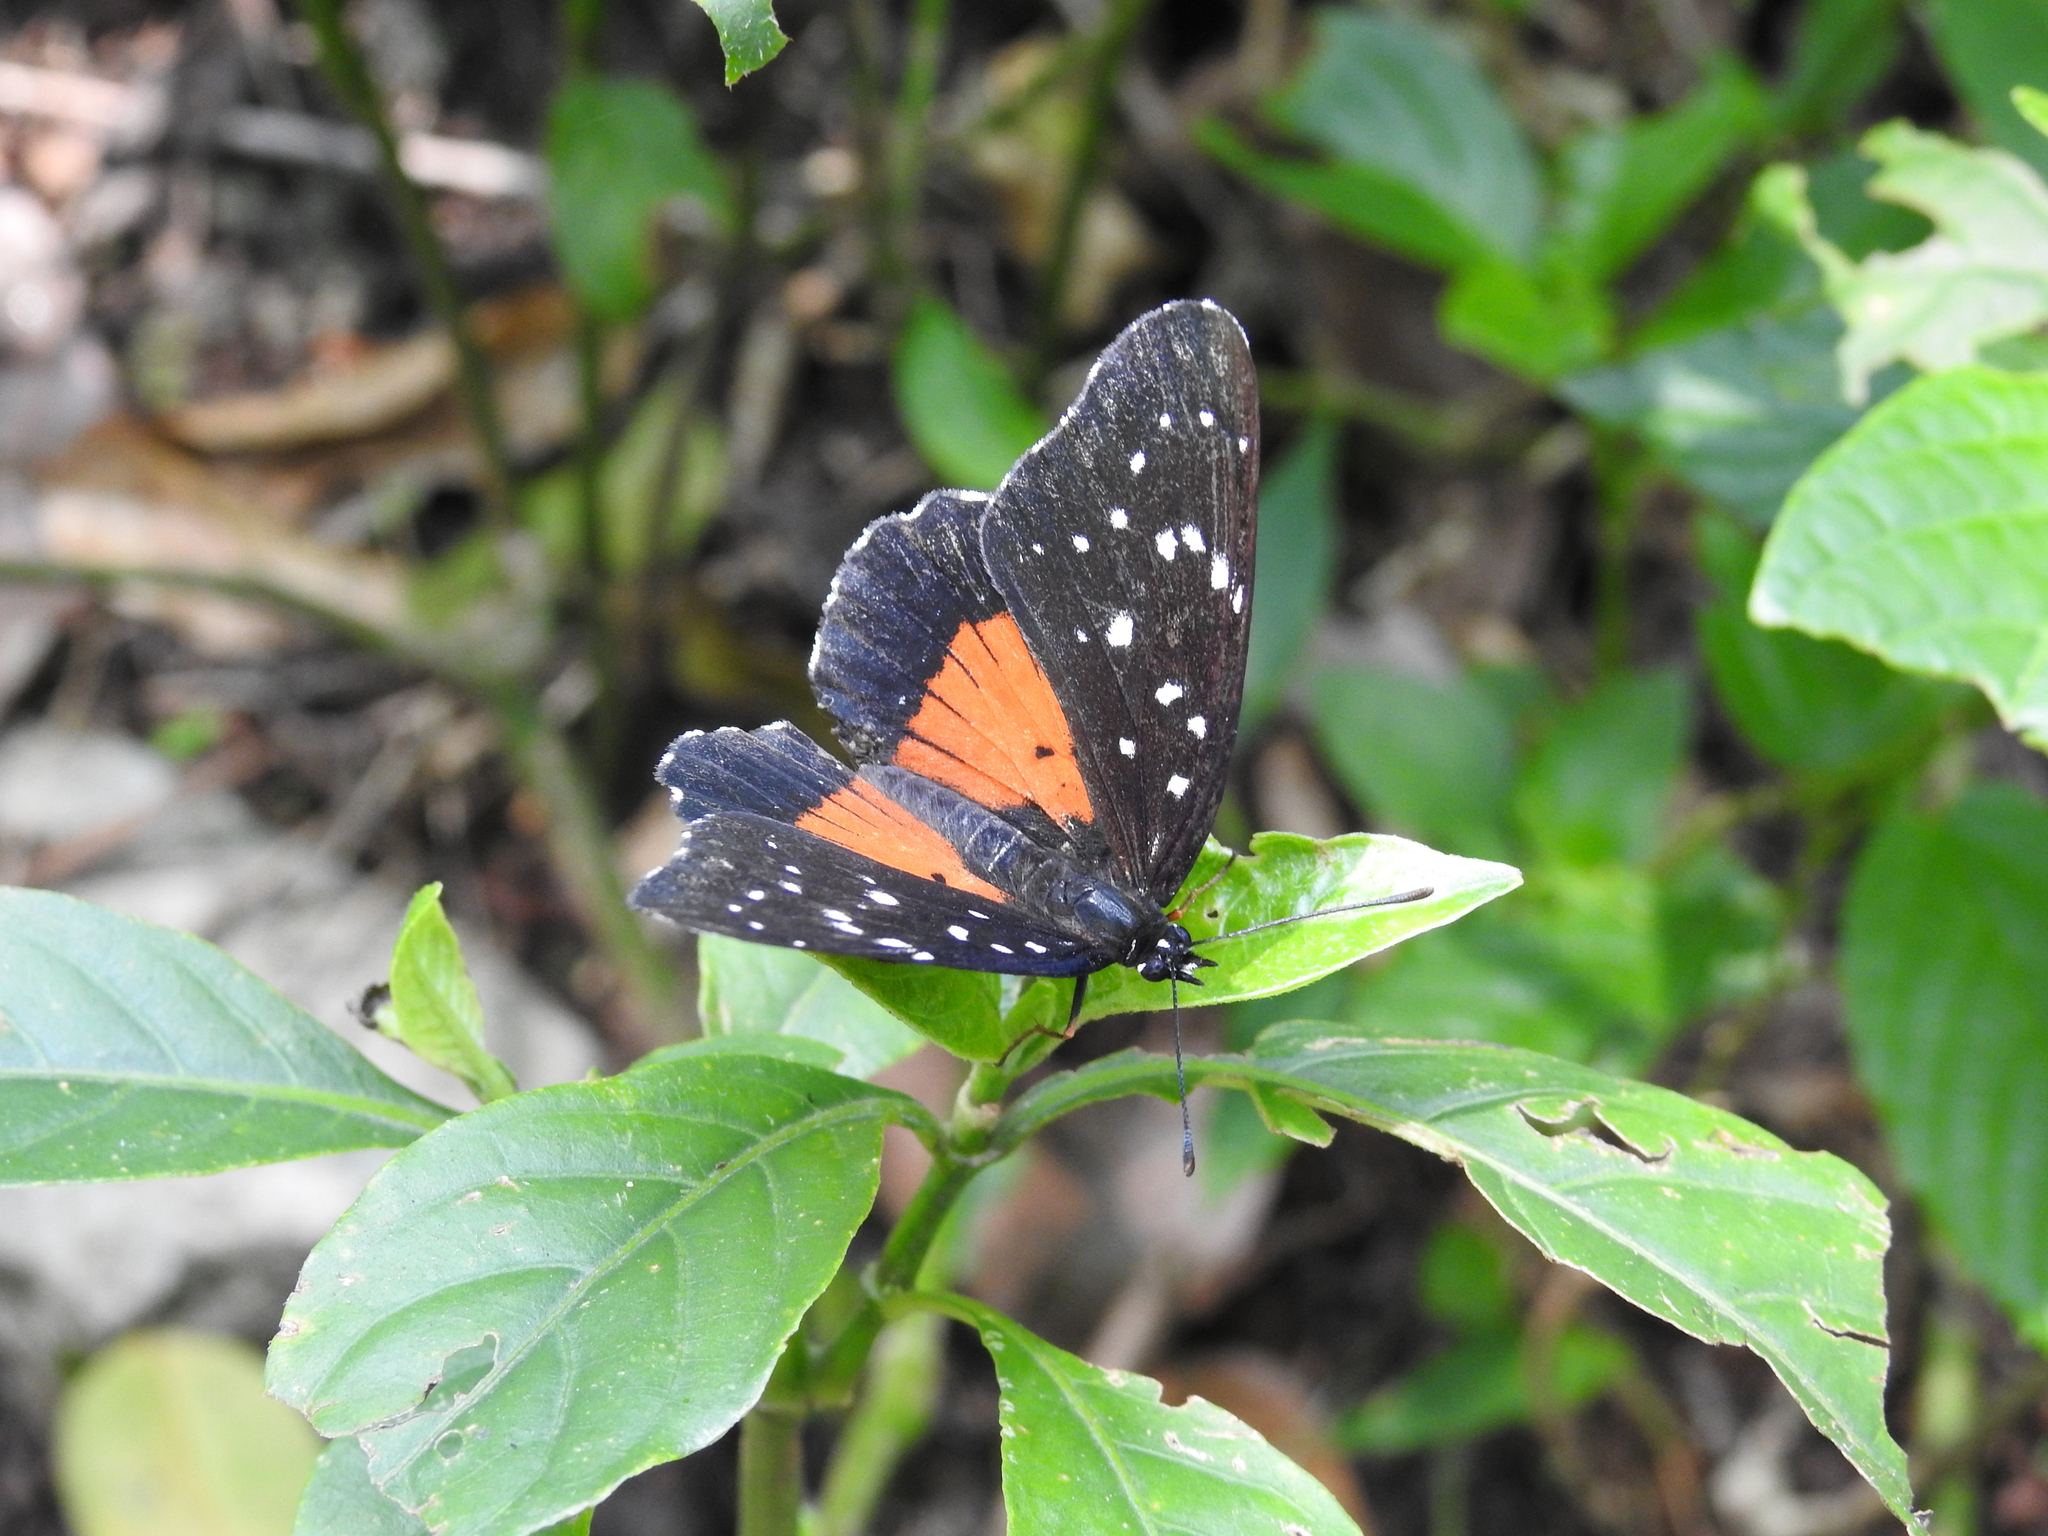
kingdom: Animalia
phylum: Arthropoda
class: Insecta
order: Lepidoptera
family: Nymphalidae
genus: Chlosyne
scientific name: Chlosyne janais
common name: Crimson patch
